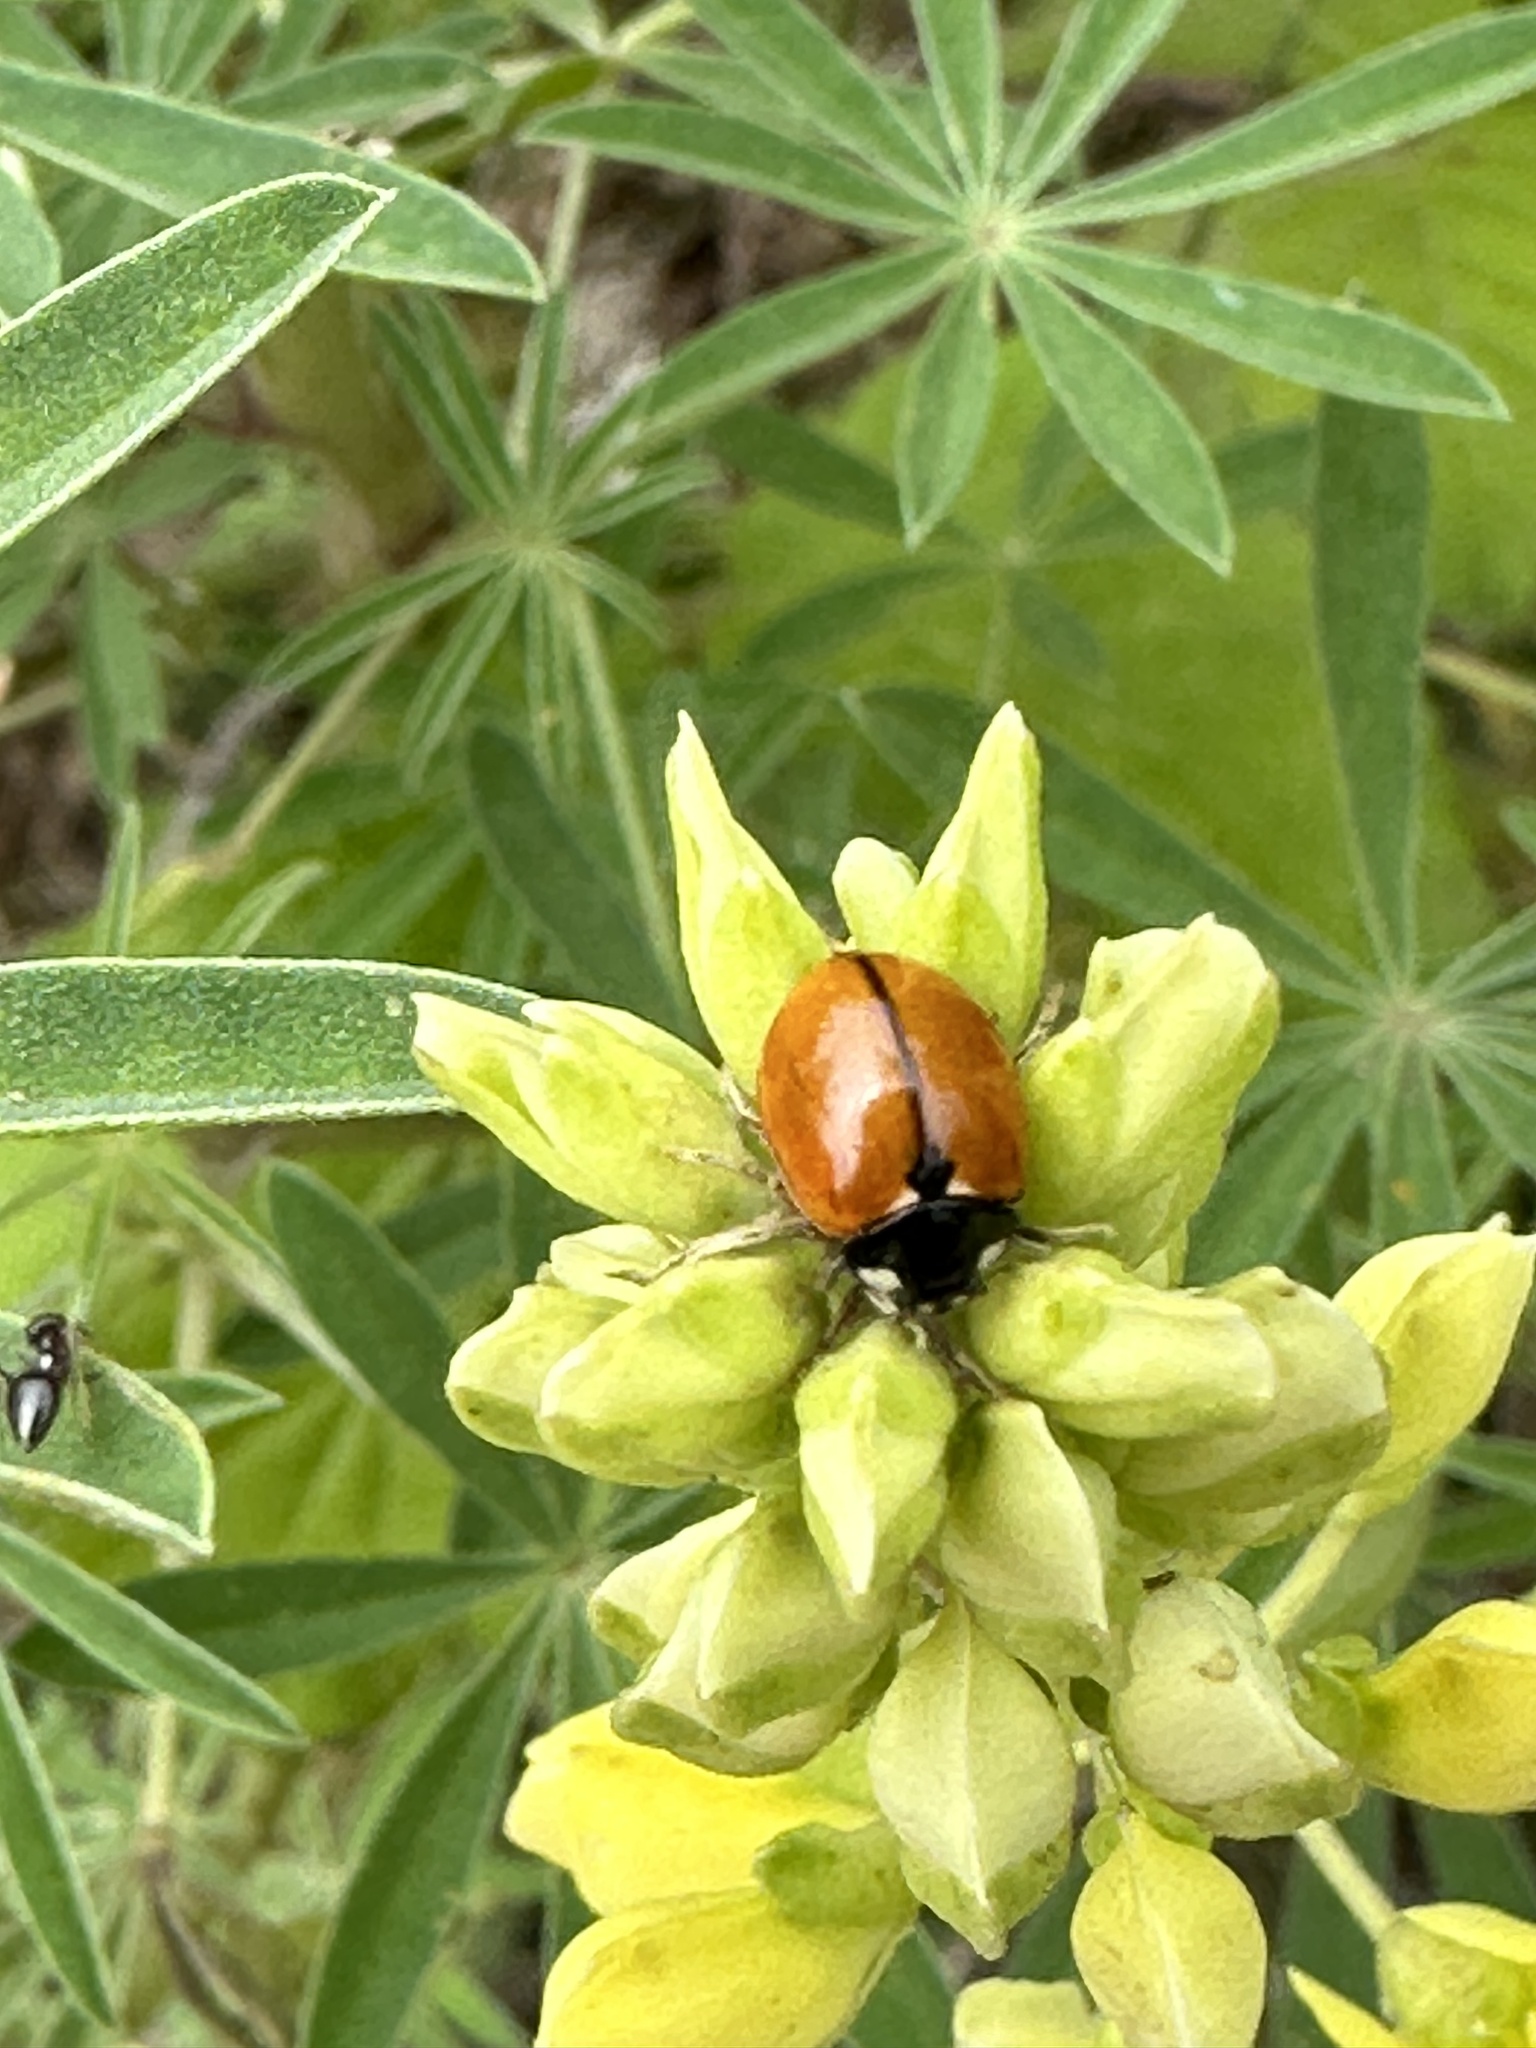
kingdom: Animalia
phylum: Arthropoda
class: Insecta
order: Coleoptera
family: Coccinellidae
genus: Coccinella
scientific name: Coccinella californica
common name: Lady beetle
